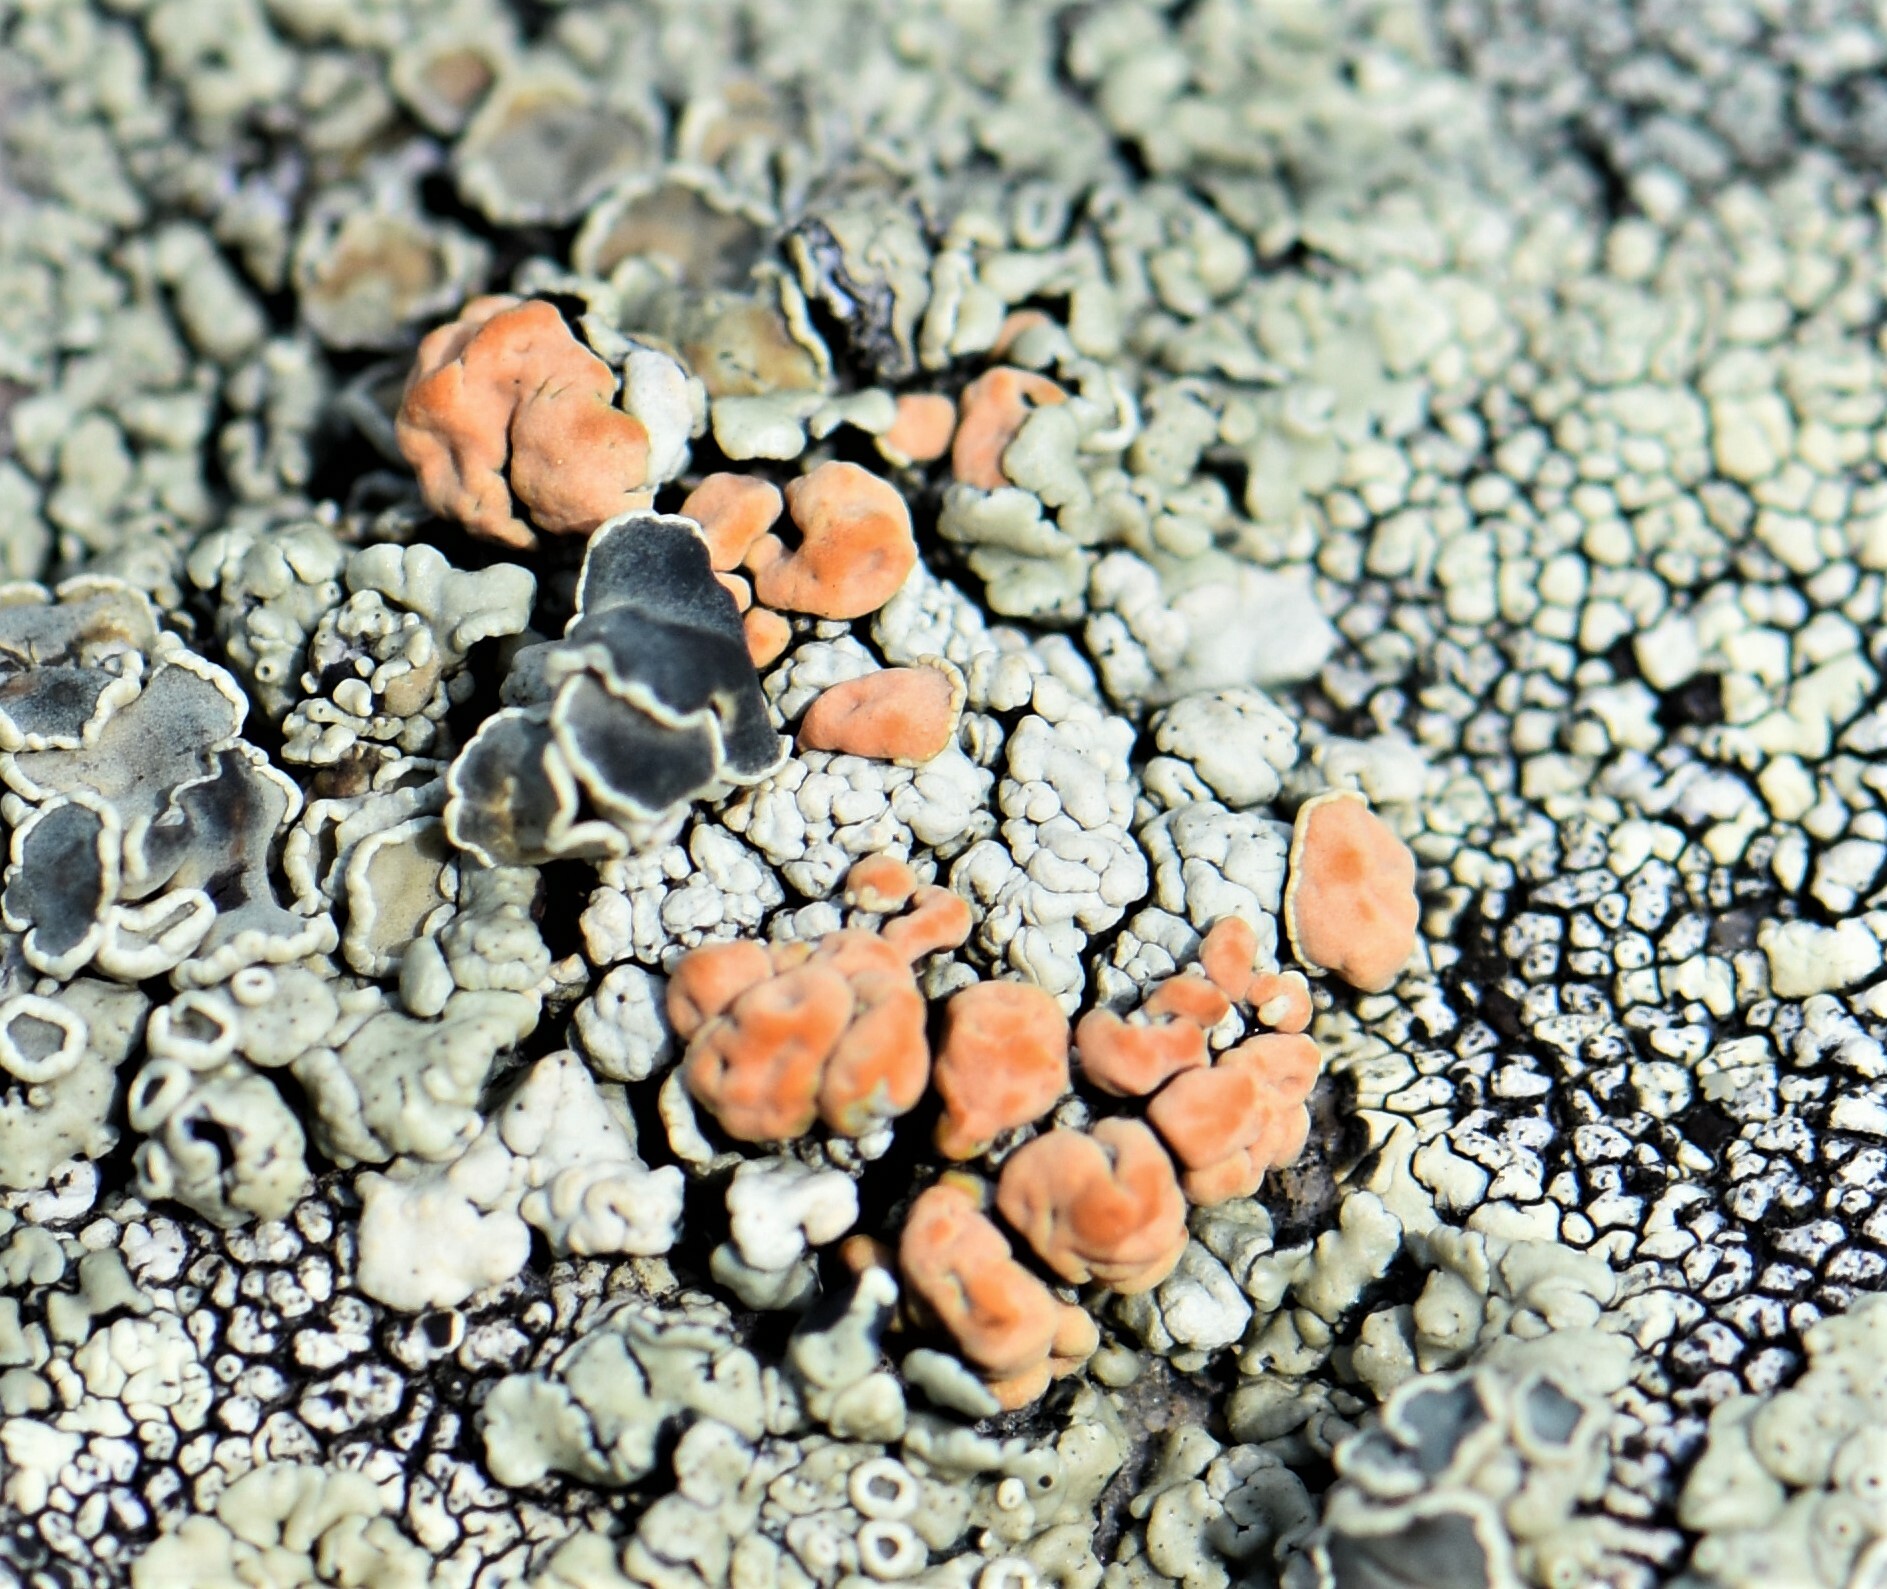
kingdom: Fungi
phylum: Ascomycota
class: Lecanoromycetes
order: Lecanorales
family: Lecanoraceae
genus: Omphalodina
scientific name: Omphalodina chrysoleuca
